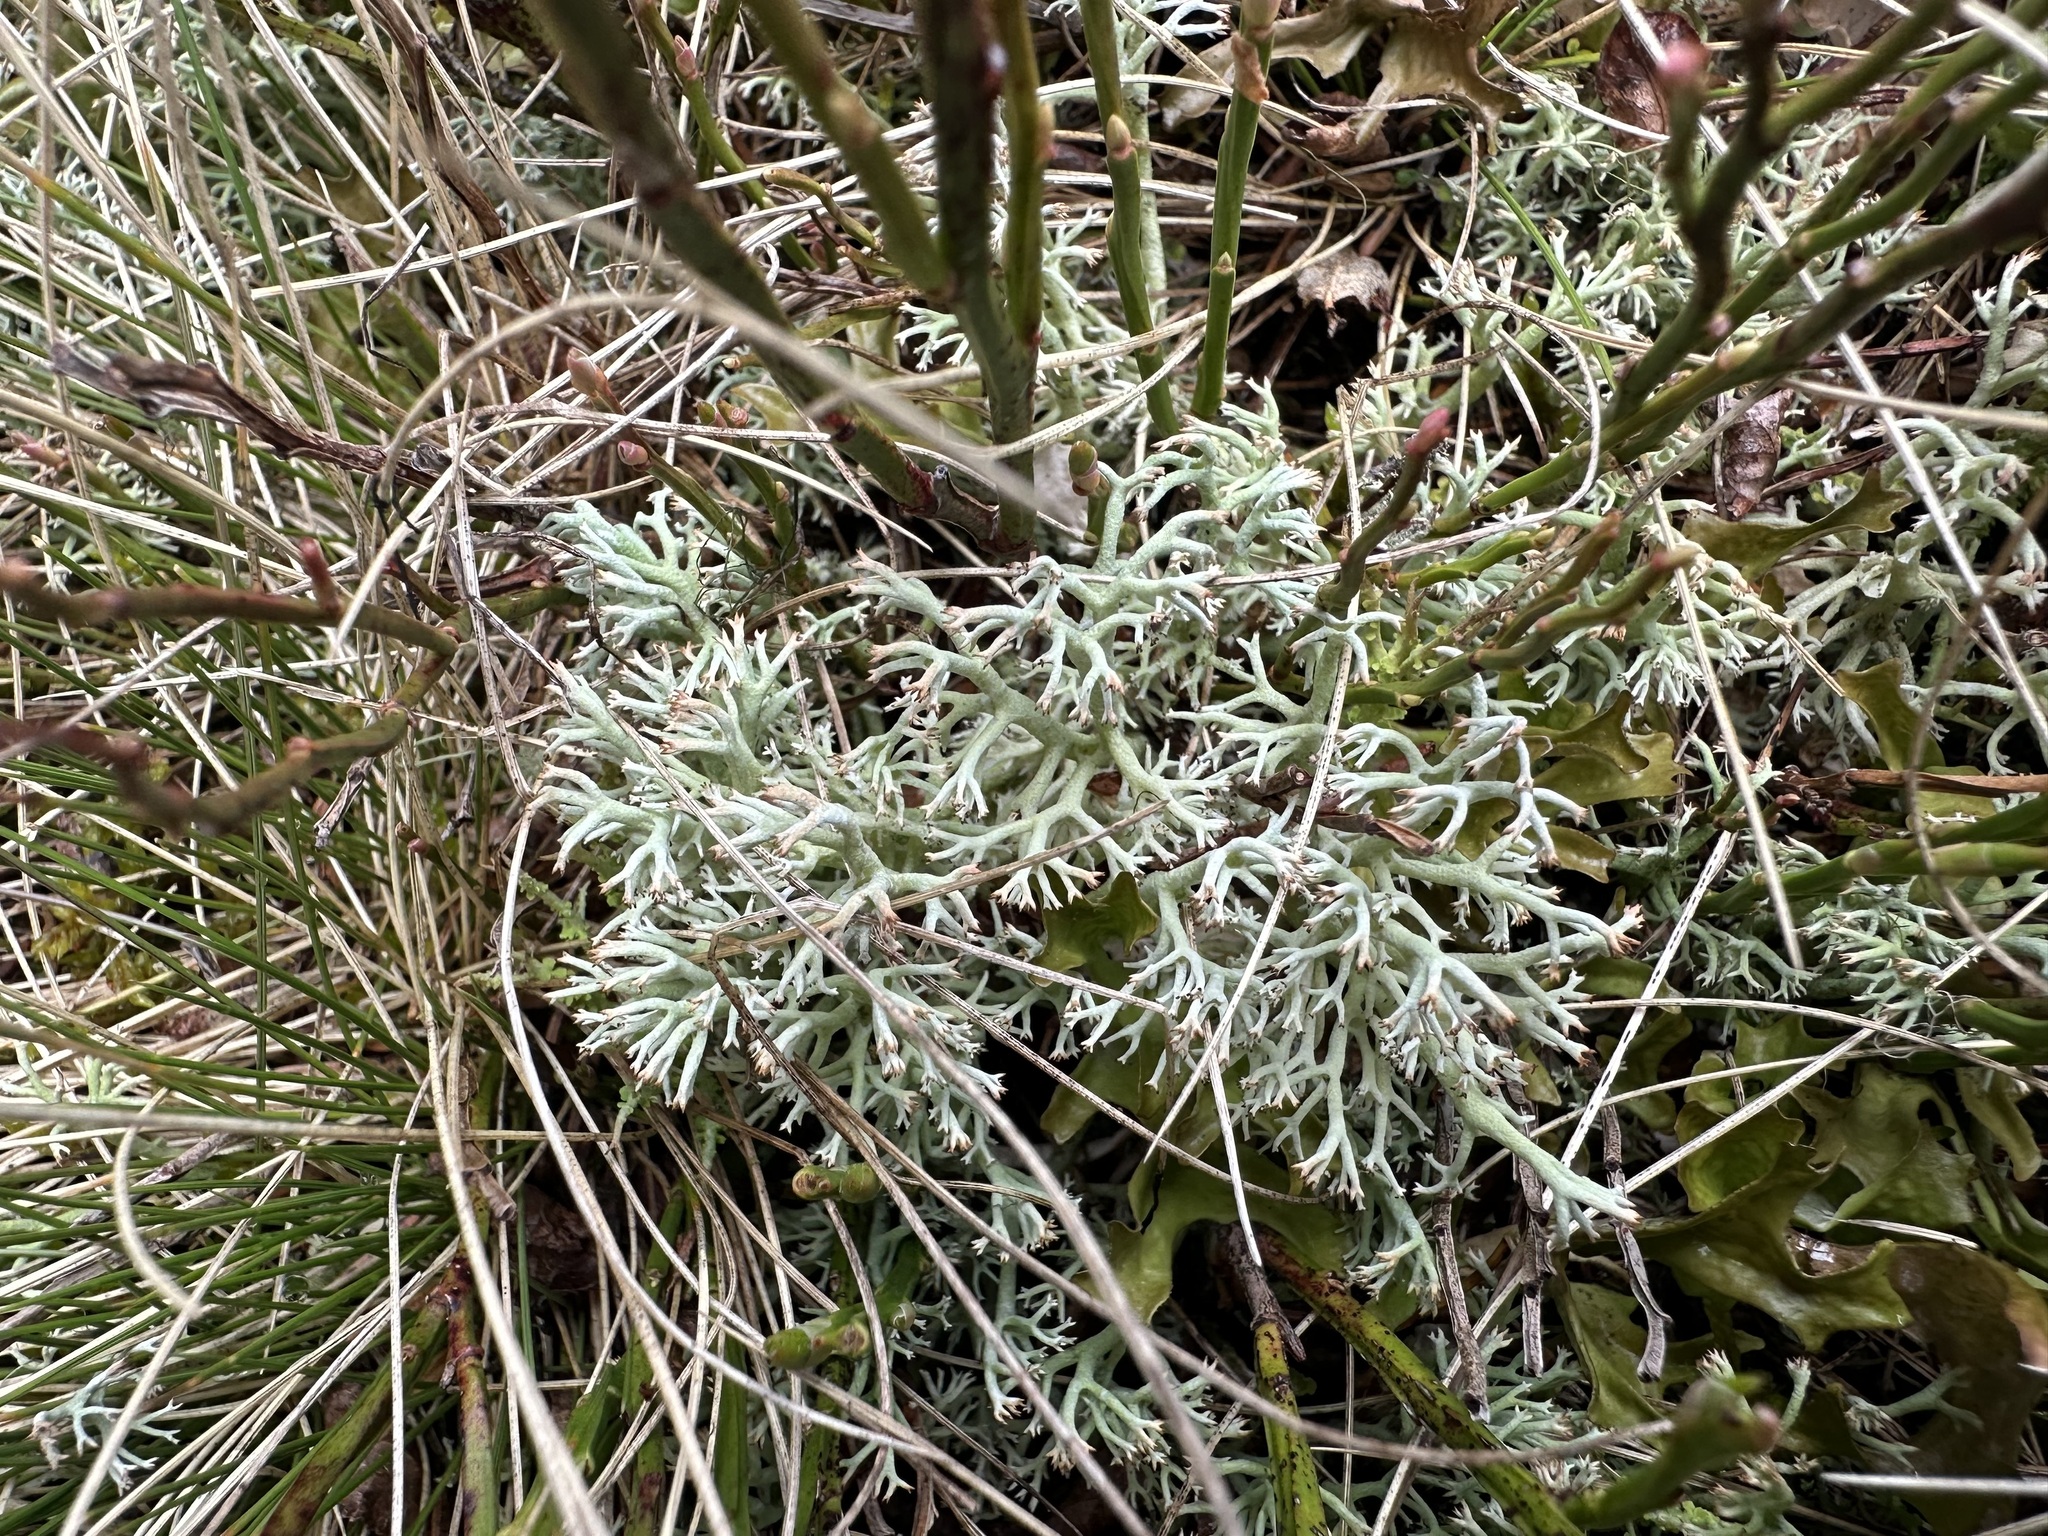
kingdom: Fungi
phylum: Ascomycota
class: Lecanoromycetes
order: Lecanorales
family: Cladoniaceae
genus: Cladonia
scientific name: Cladonia arbuscula
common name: Reindeer lichen
